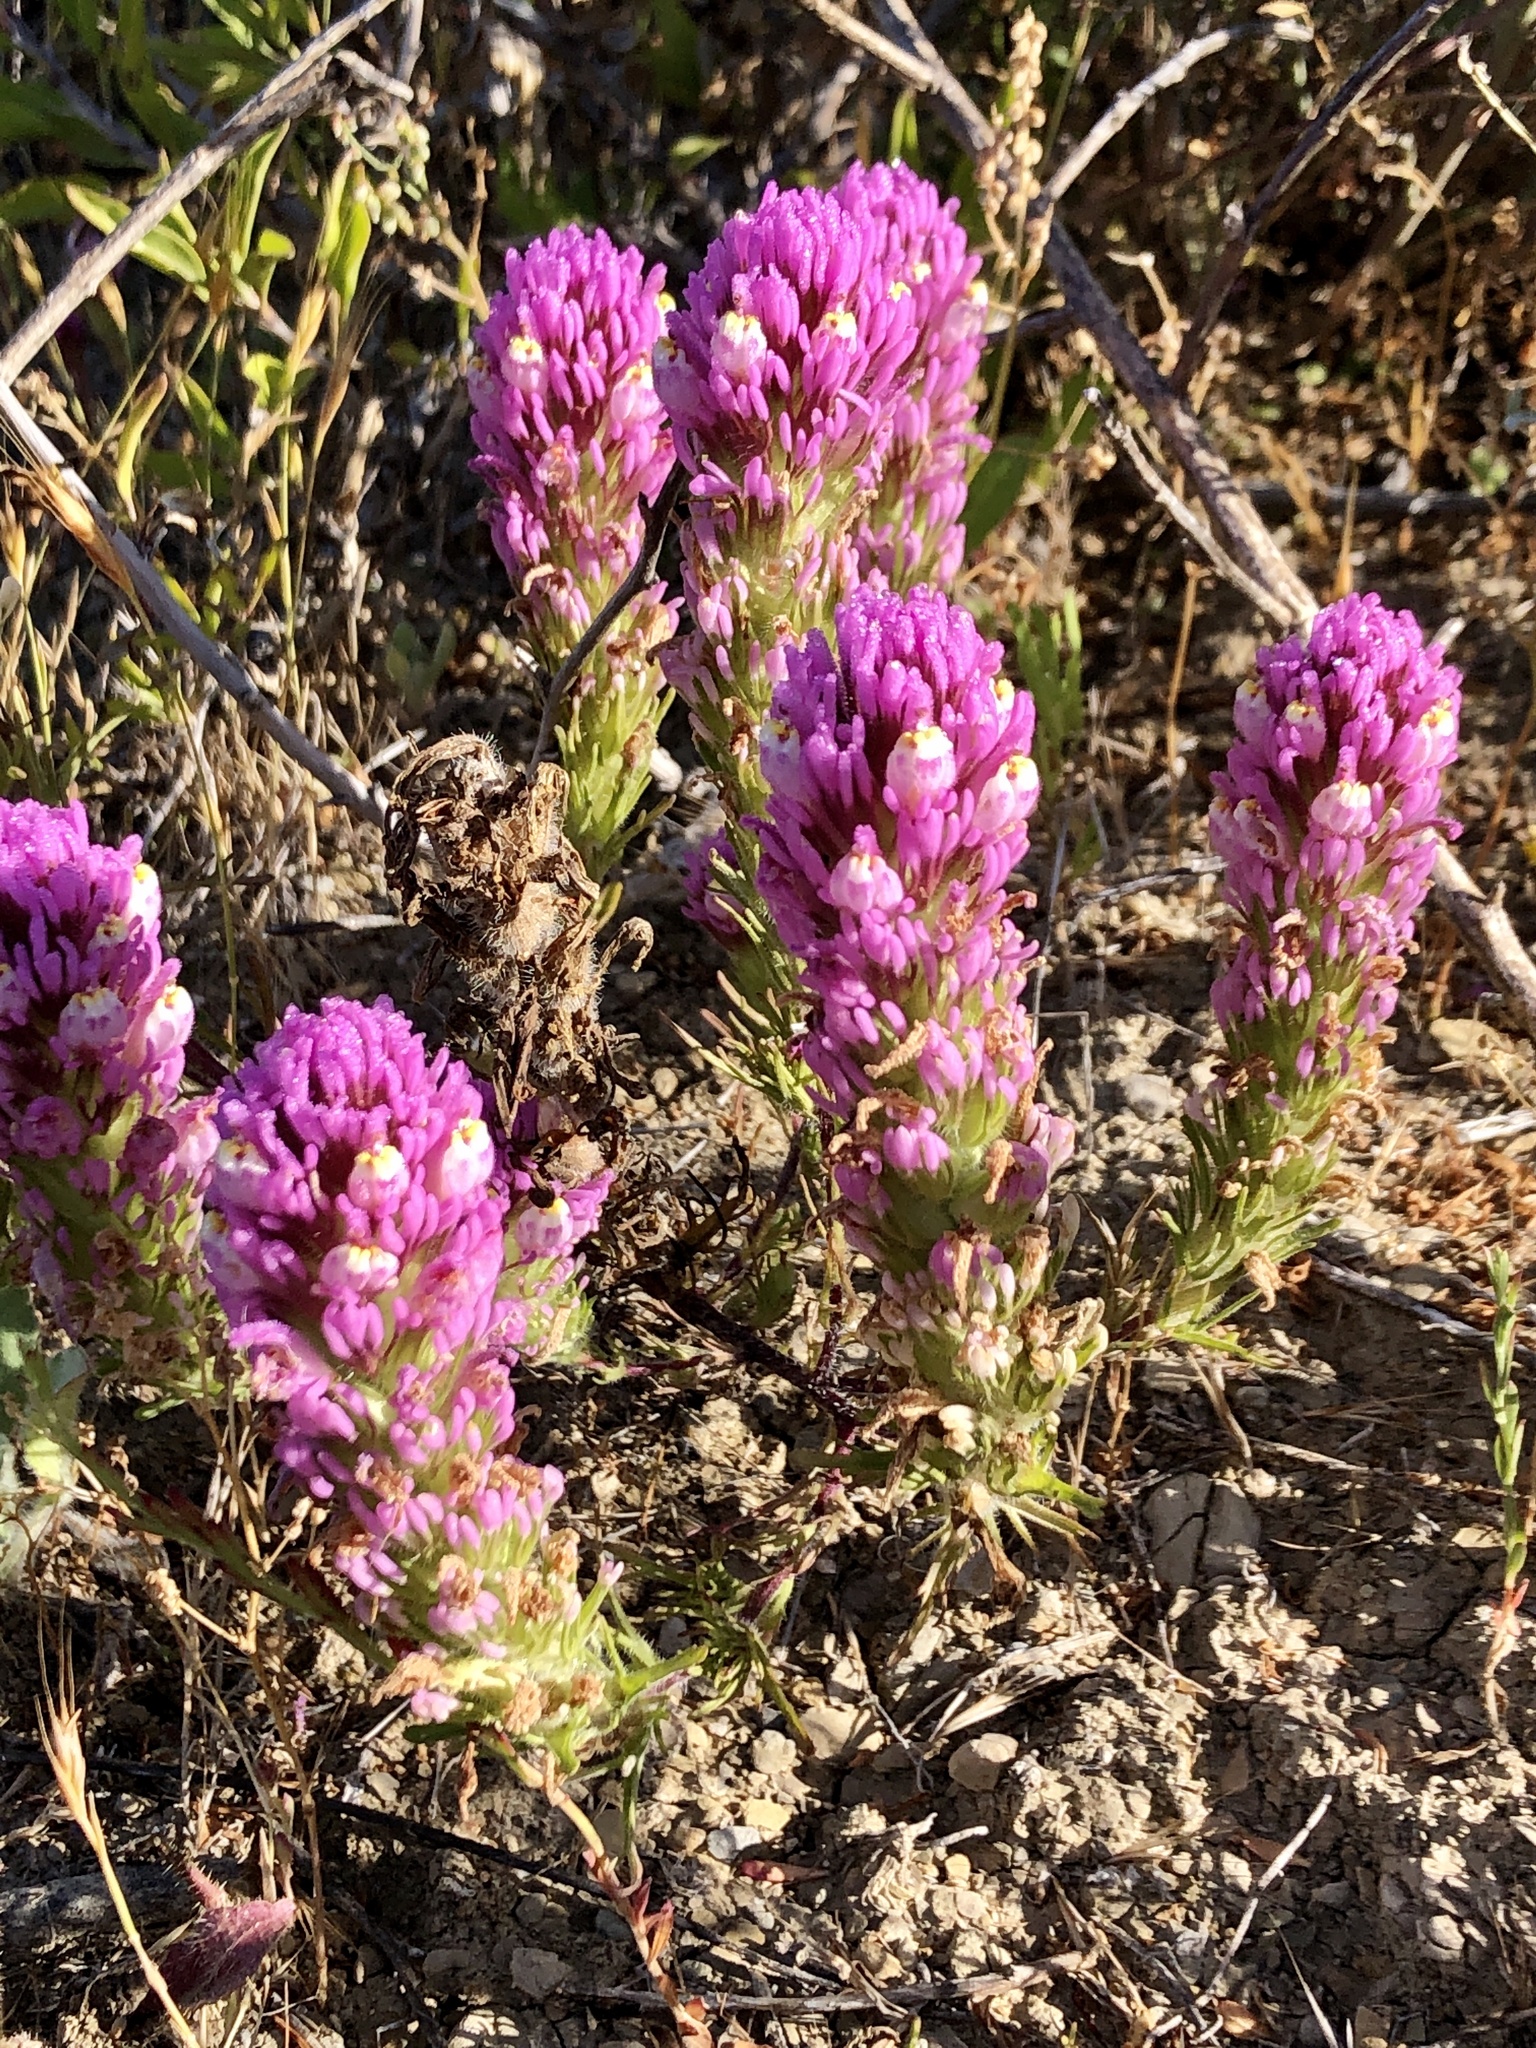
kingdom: Plantae
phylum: Tracheophyta
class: Magnoliopsida
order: Lamiales
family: Orobanchaceae
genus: Castilleja
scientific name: Castilleja exserta
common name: Purple owl-clover
